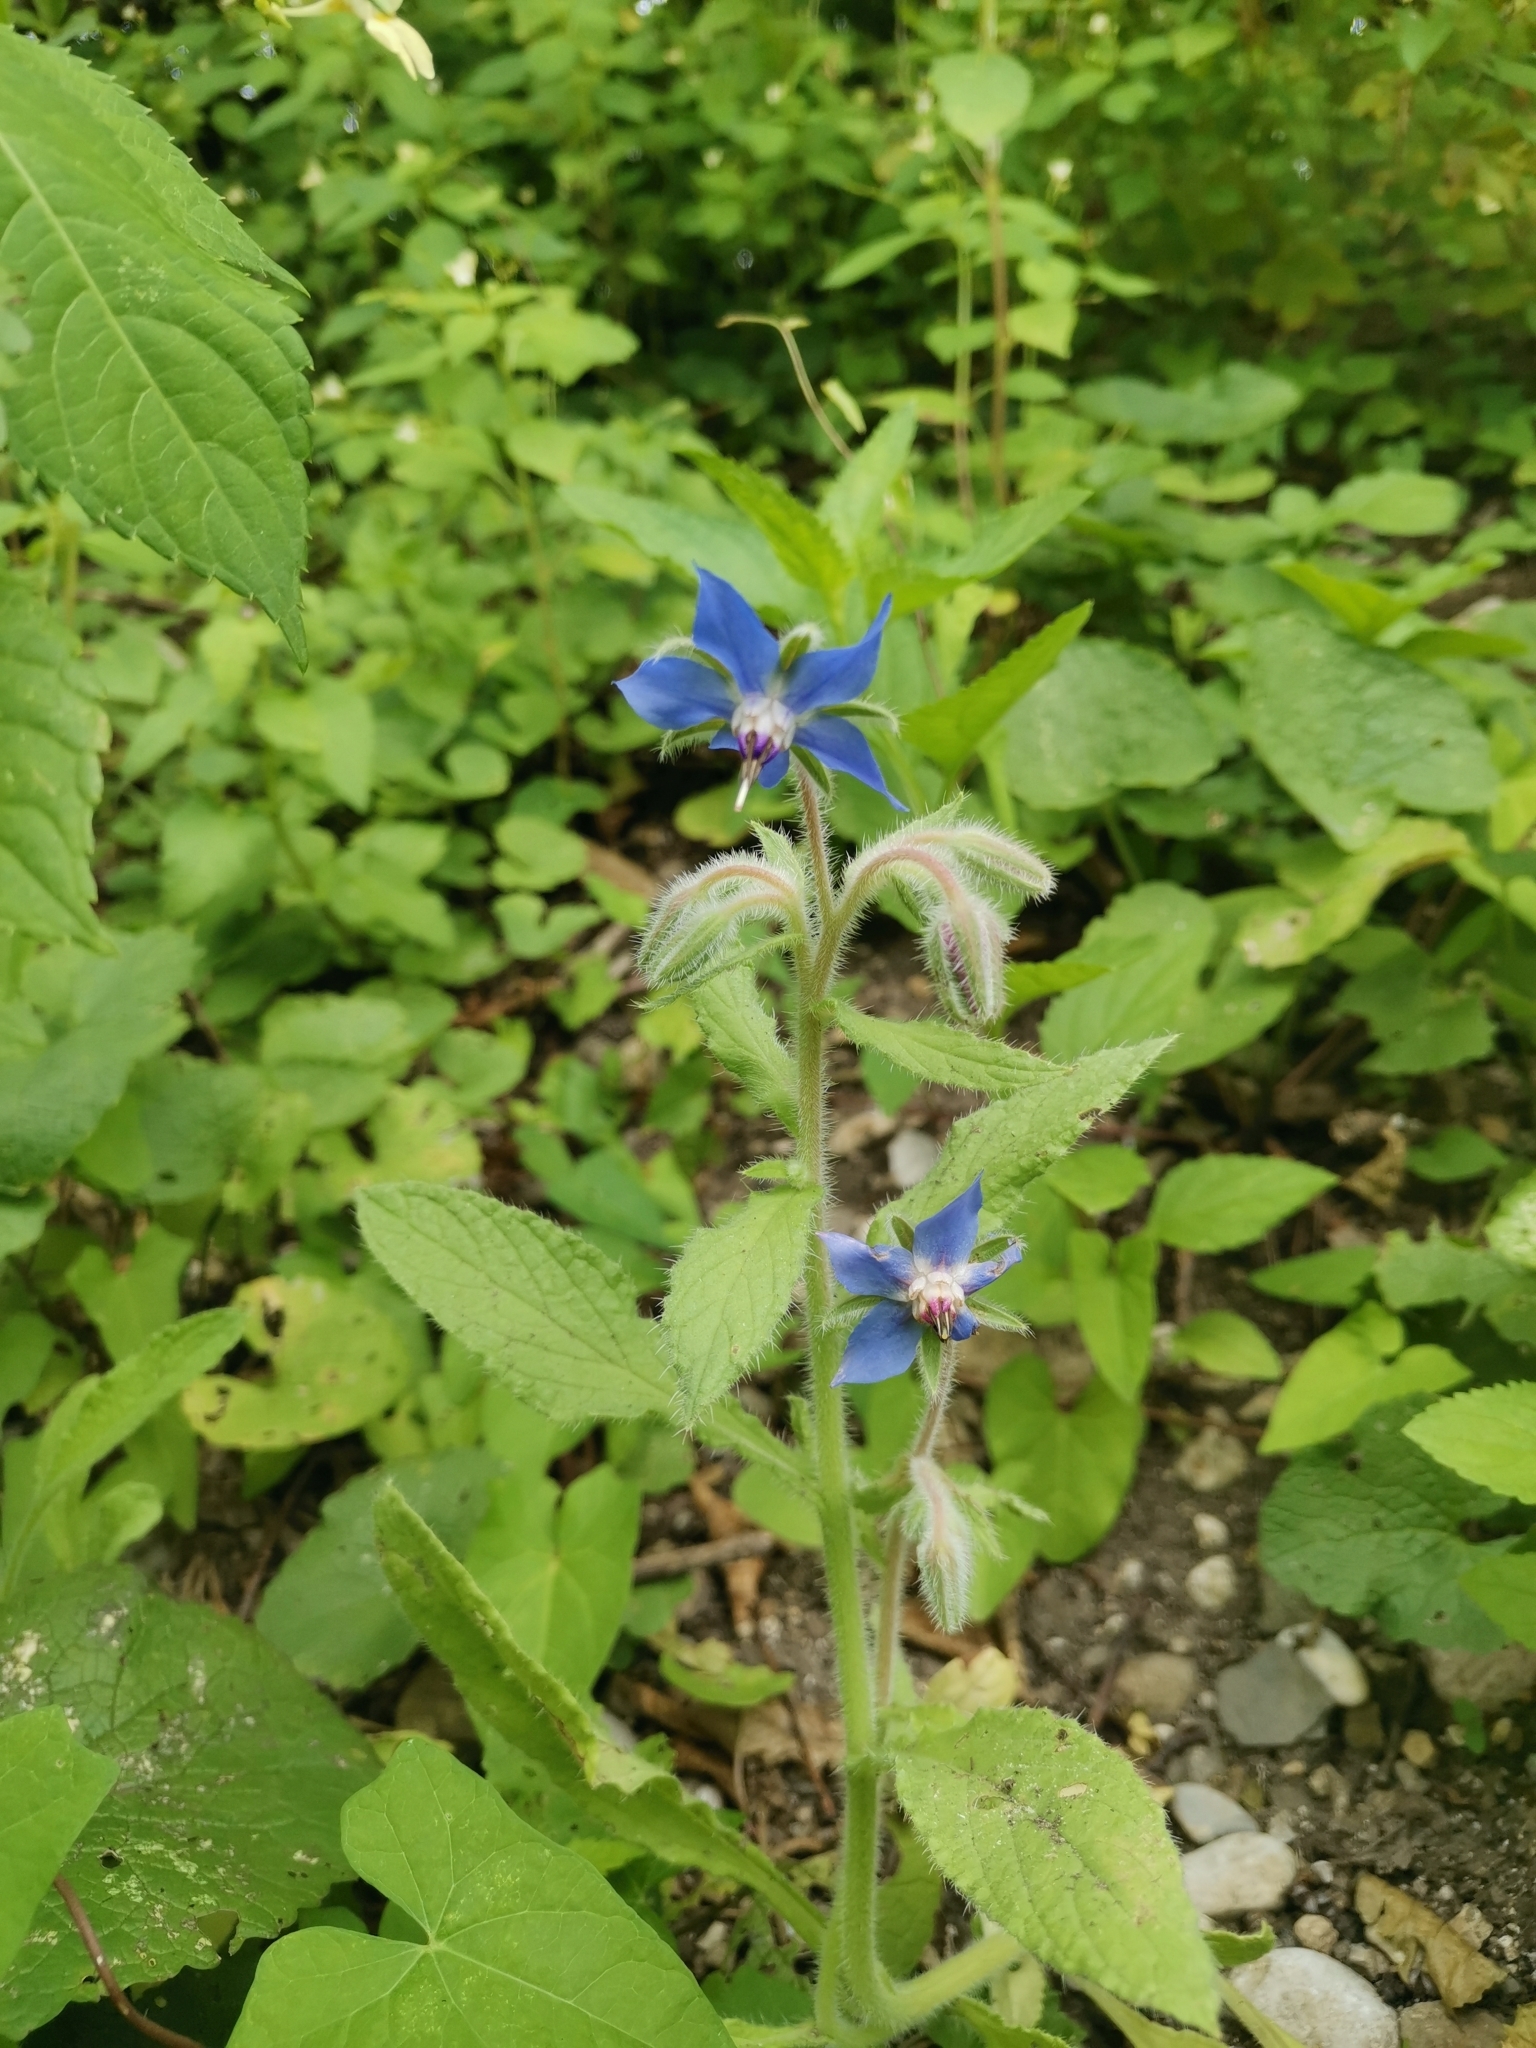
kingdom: Plantae
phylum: Tracheophyta
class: Magnoliopsida
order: Boraginales
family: Boraginaceae
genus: Borago
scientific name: Borago officinalis
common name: Borage
